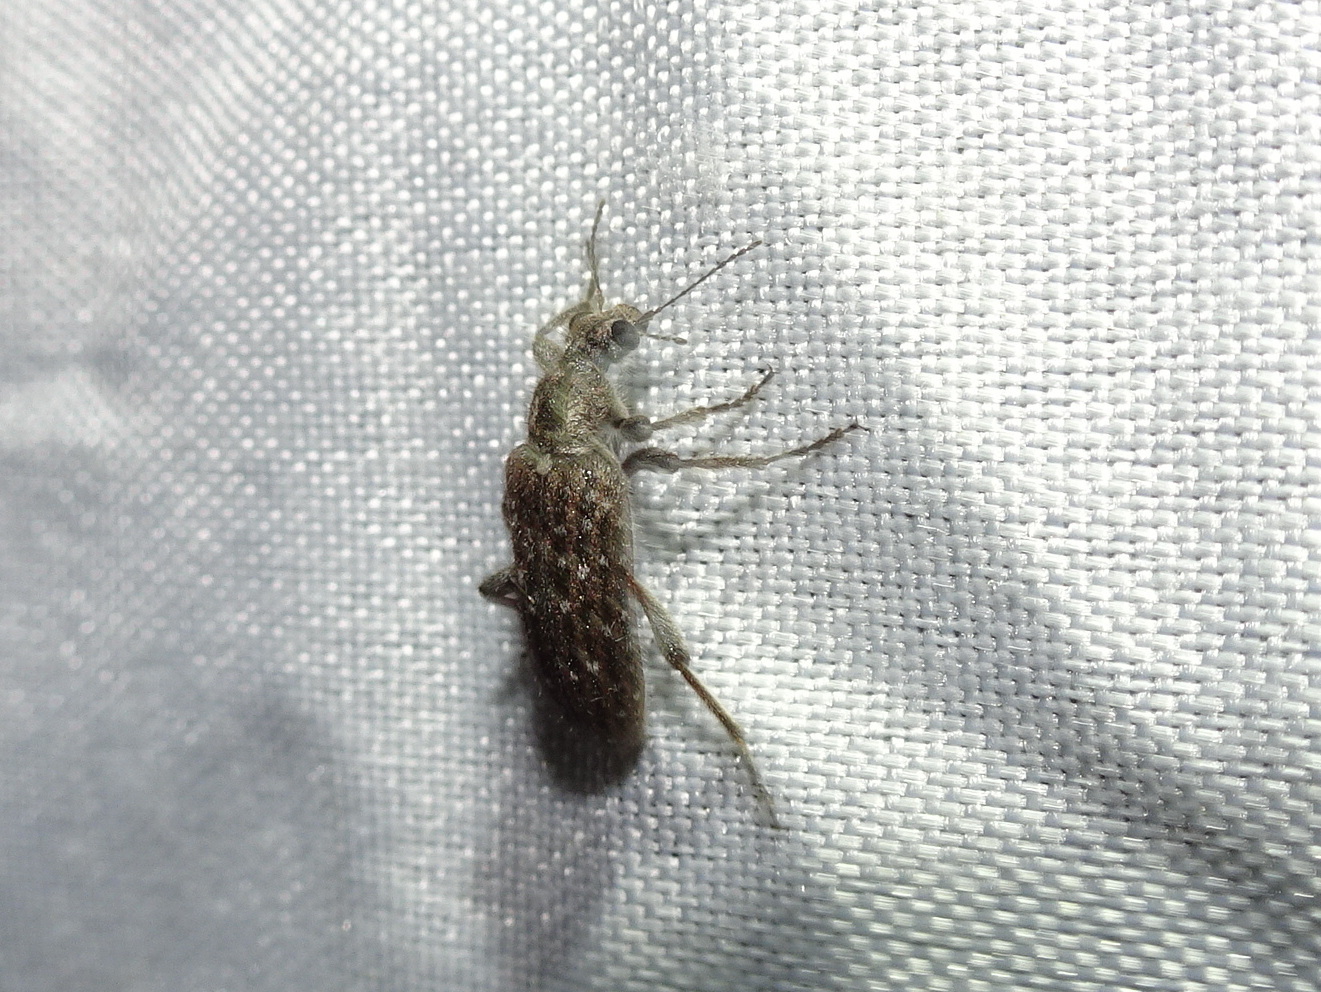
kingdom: Animalia
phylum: Arthropoda
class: Insecta
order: Coleoptera
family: Anthicidae
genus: Retocomus
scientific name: Retocomus wildii
